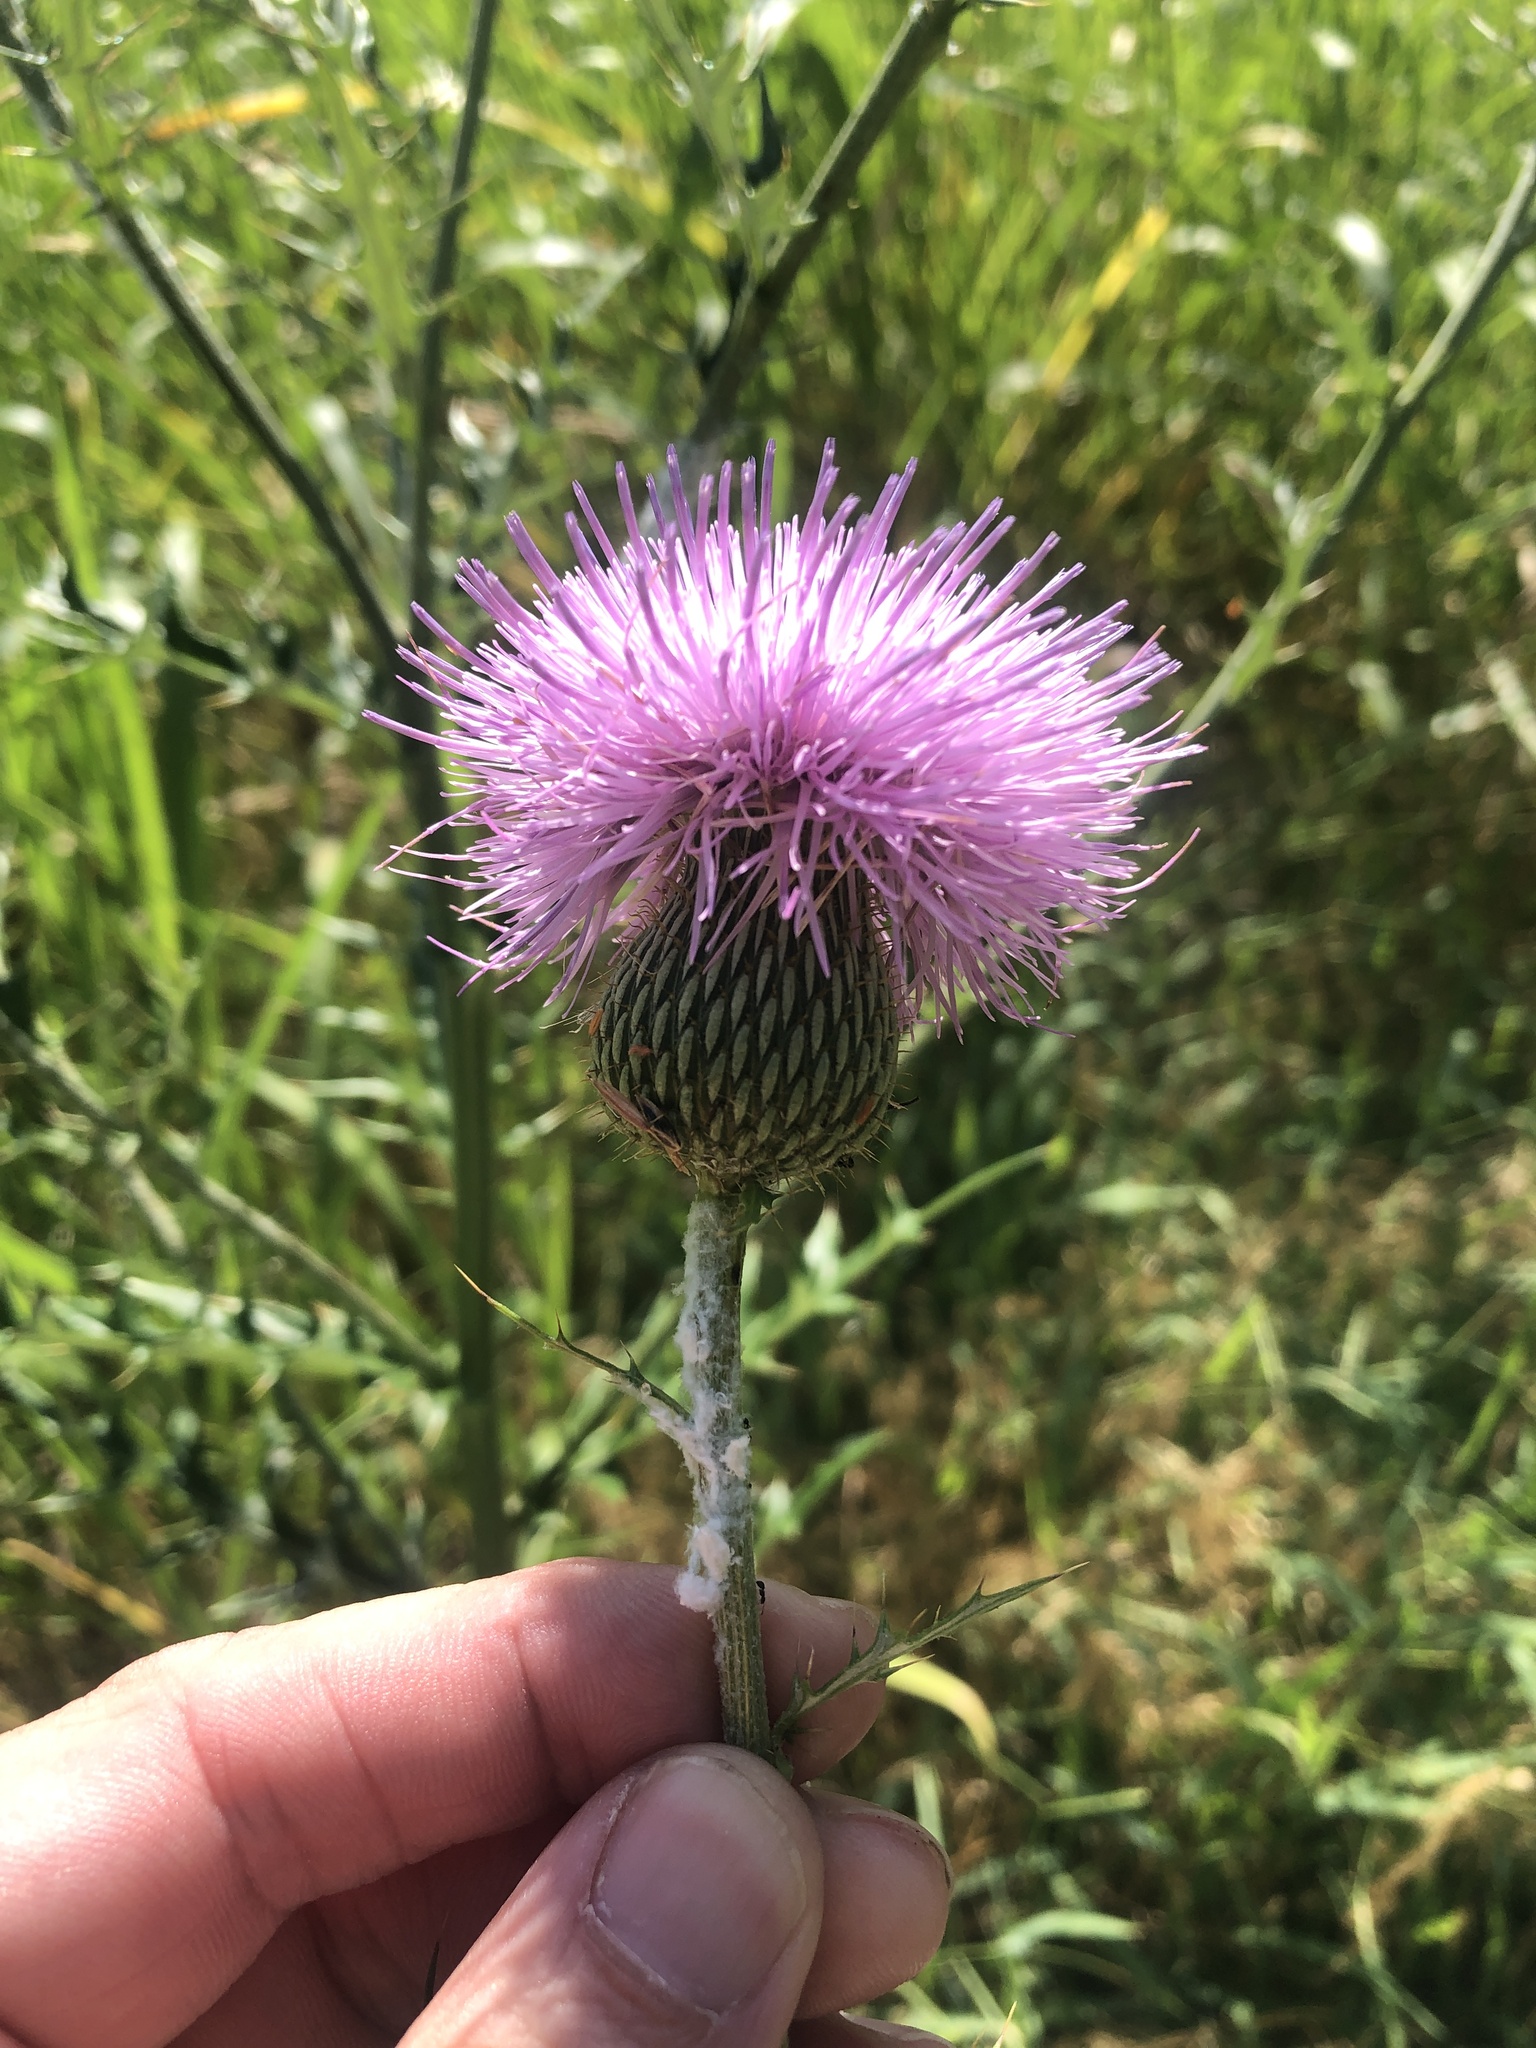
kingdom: Plantae
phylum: Tracheophyta
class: Magnoliopsida
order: Asterales
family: Asteraceae
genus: Cirsium
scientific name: Cirsium engelmannii
